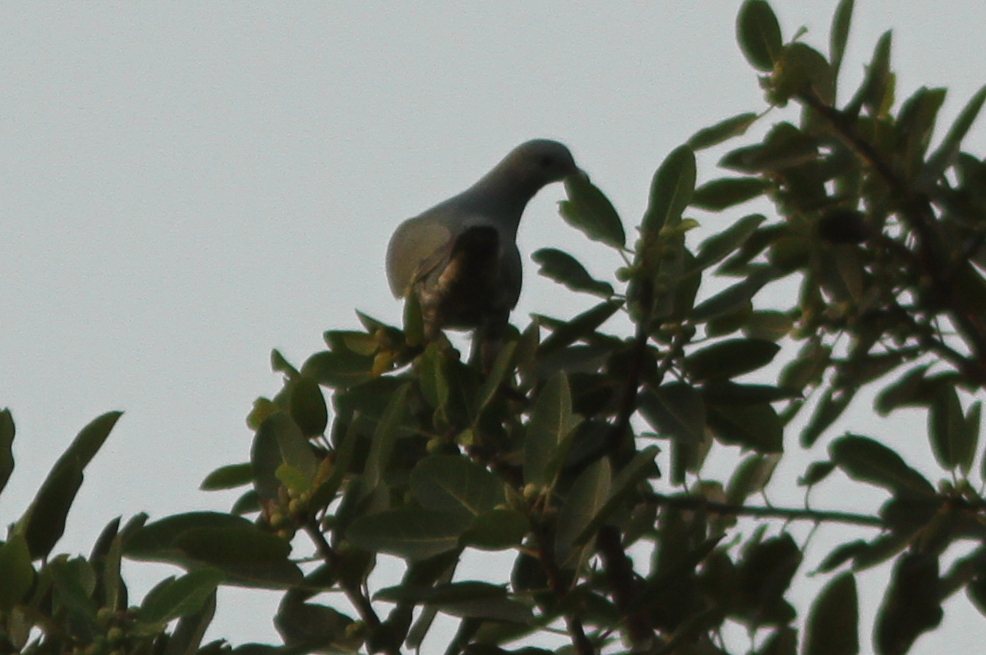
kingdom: Animalia
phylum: Chordata
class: Aves
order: Columbiformes
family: Columbidae
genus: Treron
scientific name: Treron waalia
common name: Bruce's green pigeon
